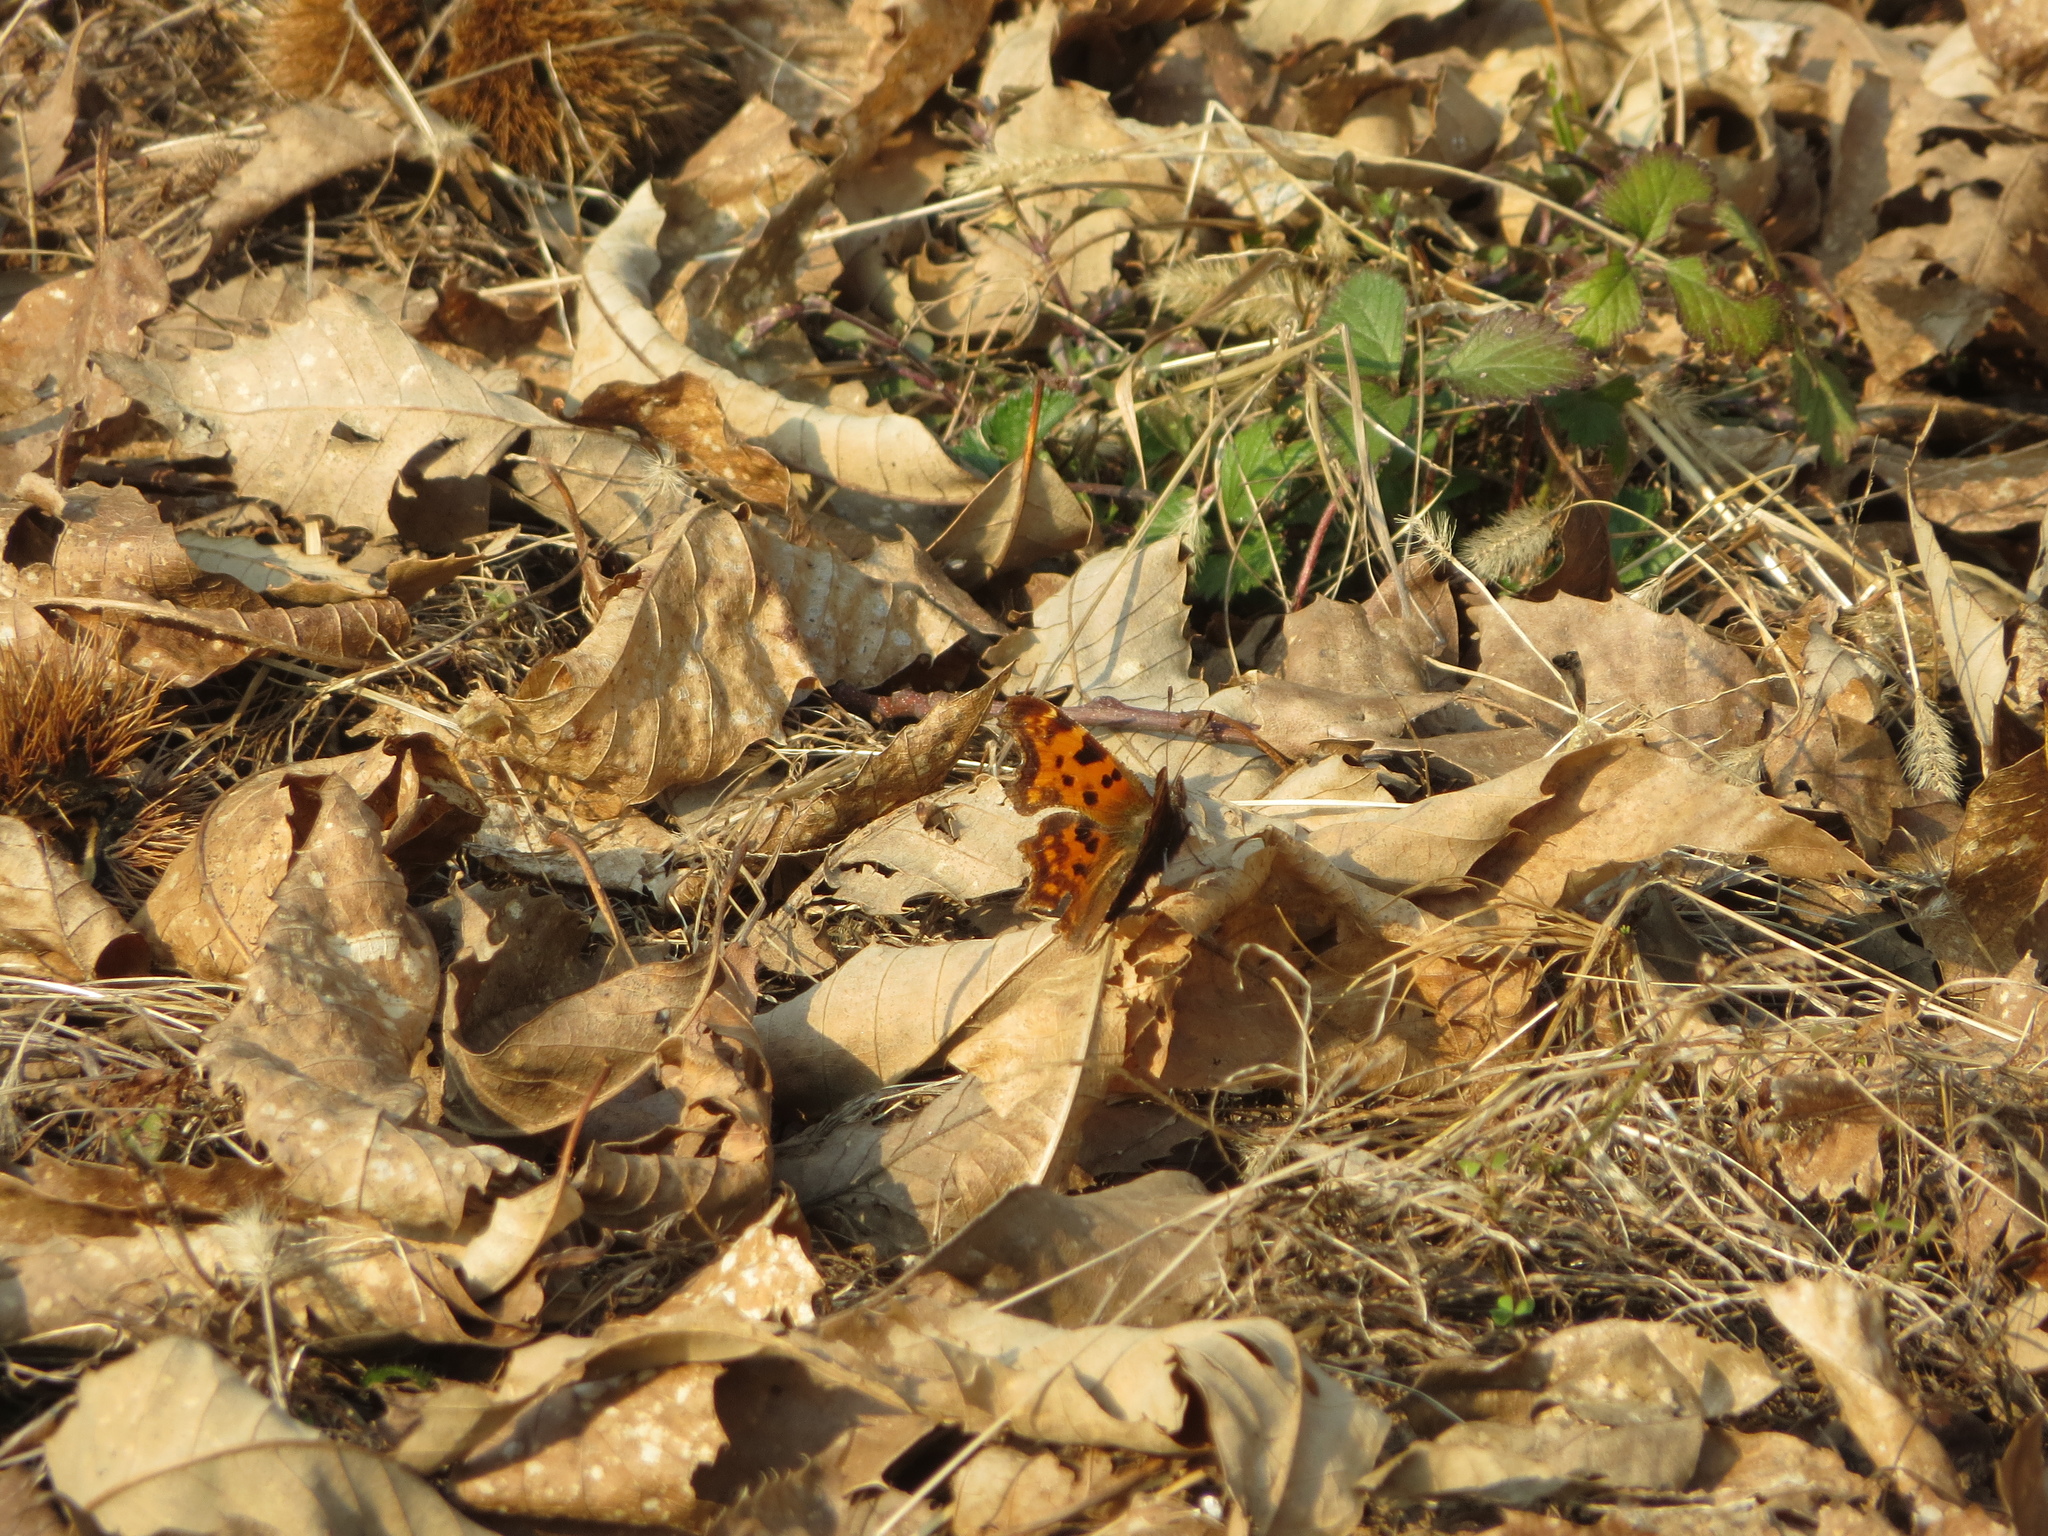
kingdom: Animalia
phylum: Arthropoda
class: Insecta
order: Lepidoptera
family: Nymphalidae
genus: Polygonia
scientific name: Polygonia c-album
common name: Comma
